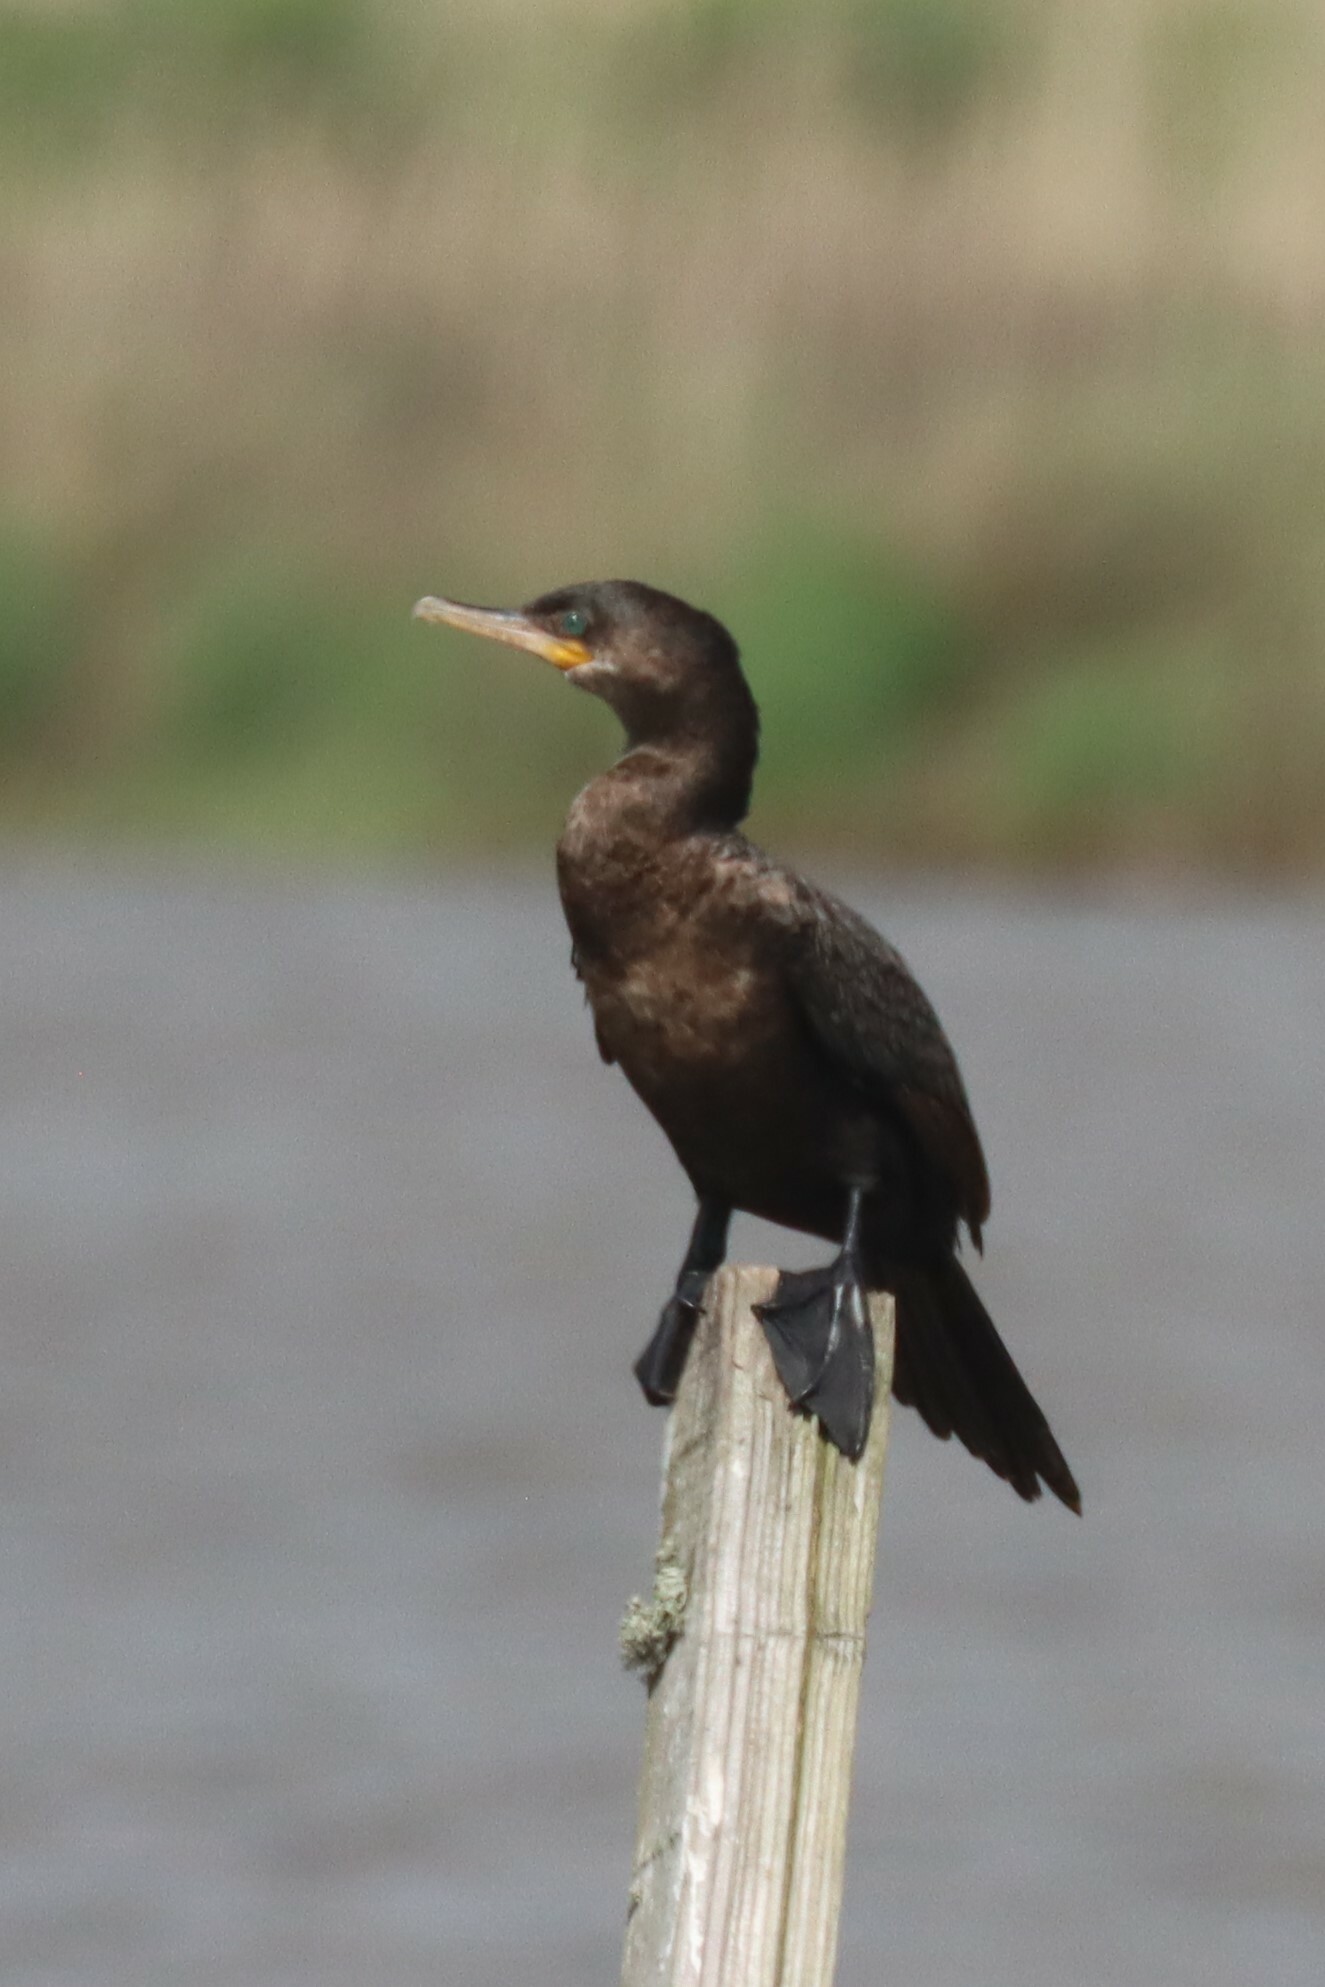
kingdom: Animalia
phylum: Chordata
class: Aves
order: Suliformes
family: Phalacrocoracidae
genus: Phalacrocorax
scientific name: Phalacrocorax brasilianus
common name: Neotropic cormorant
